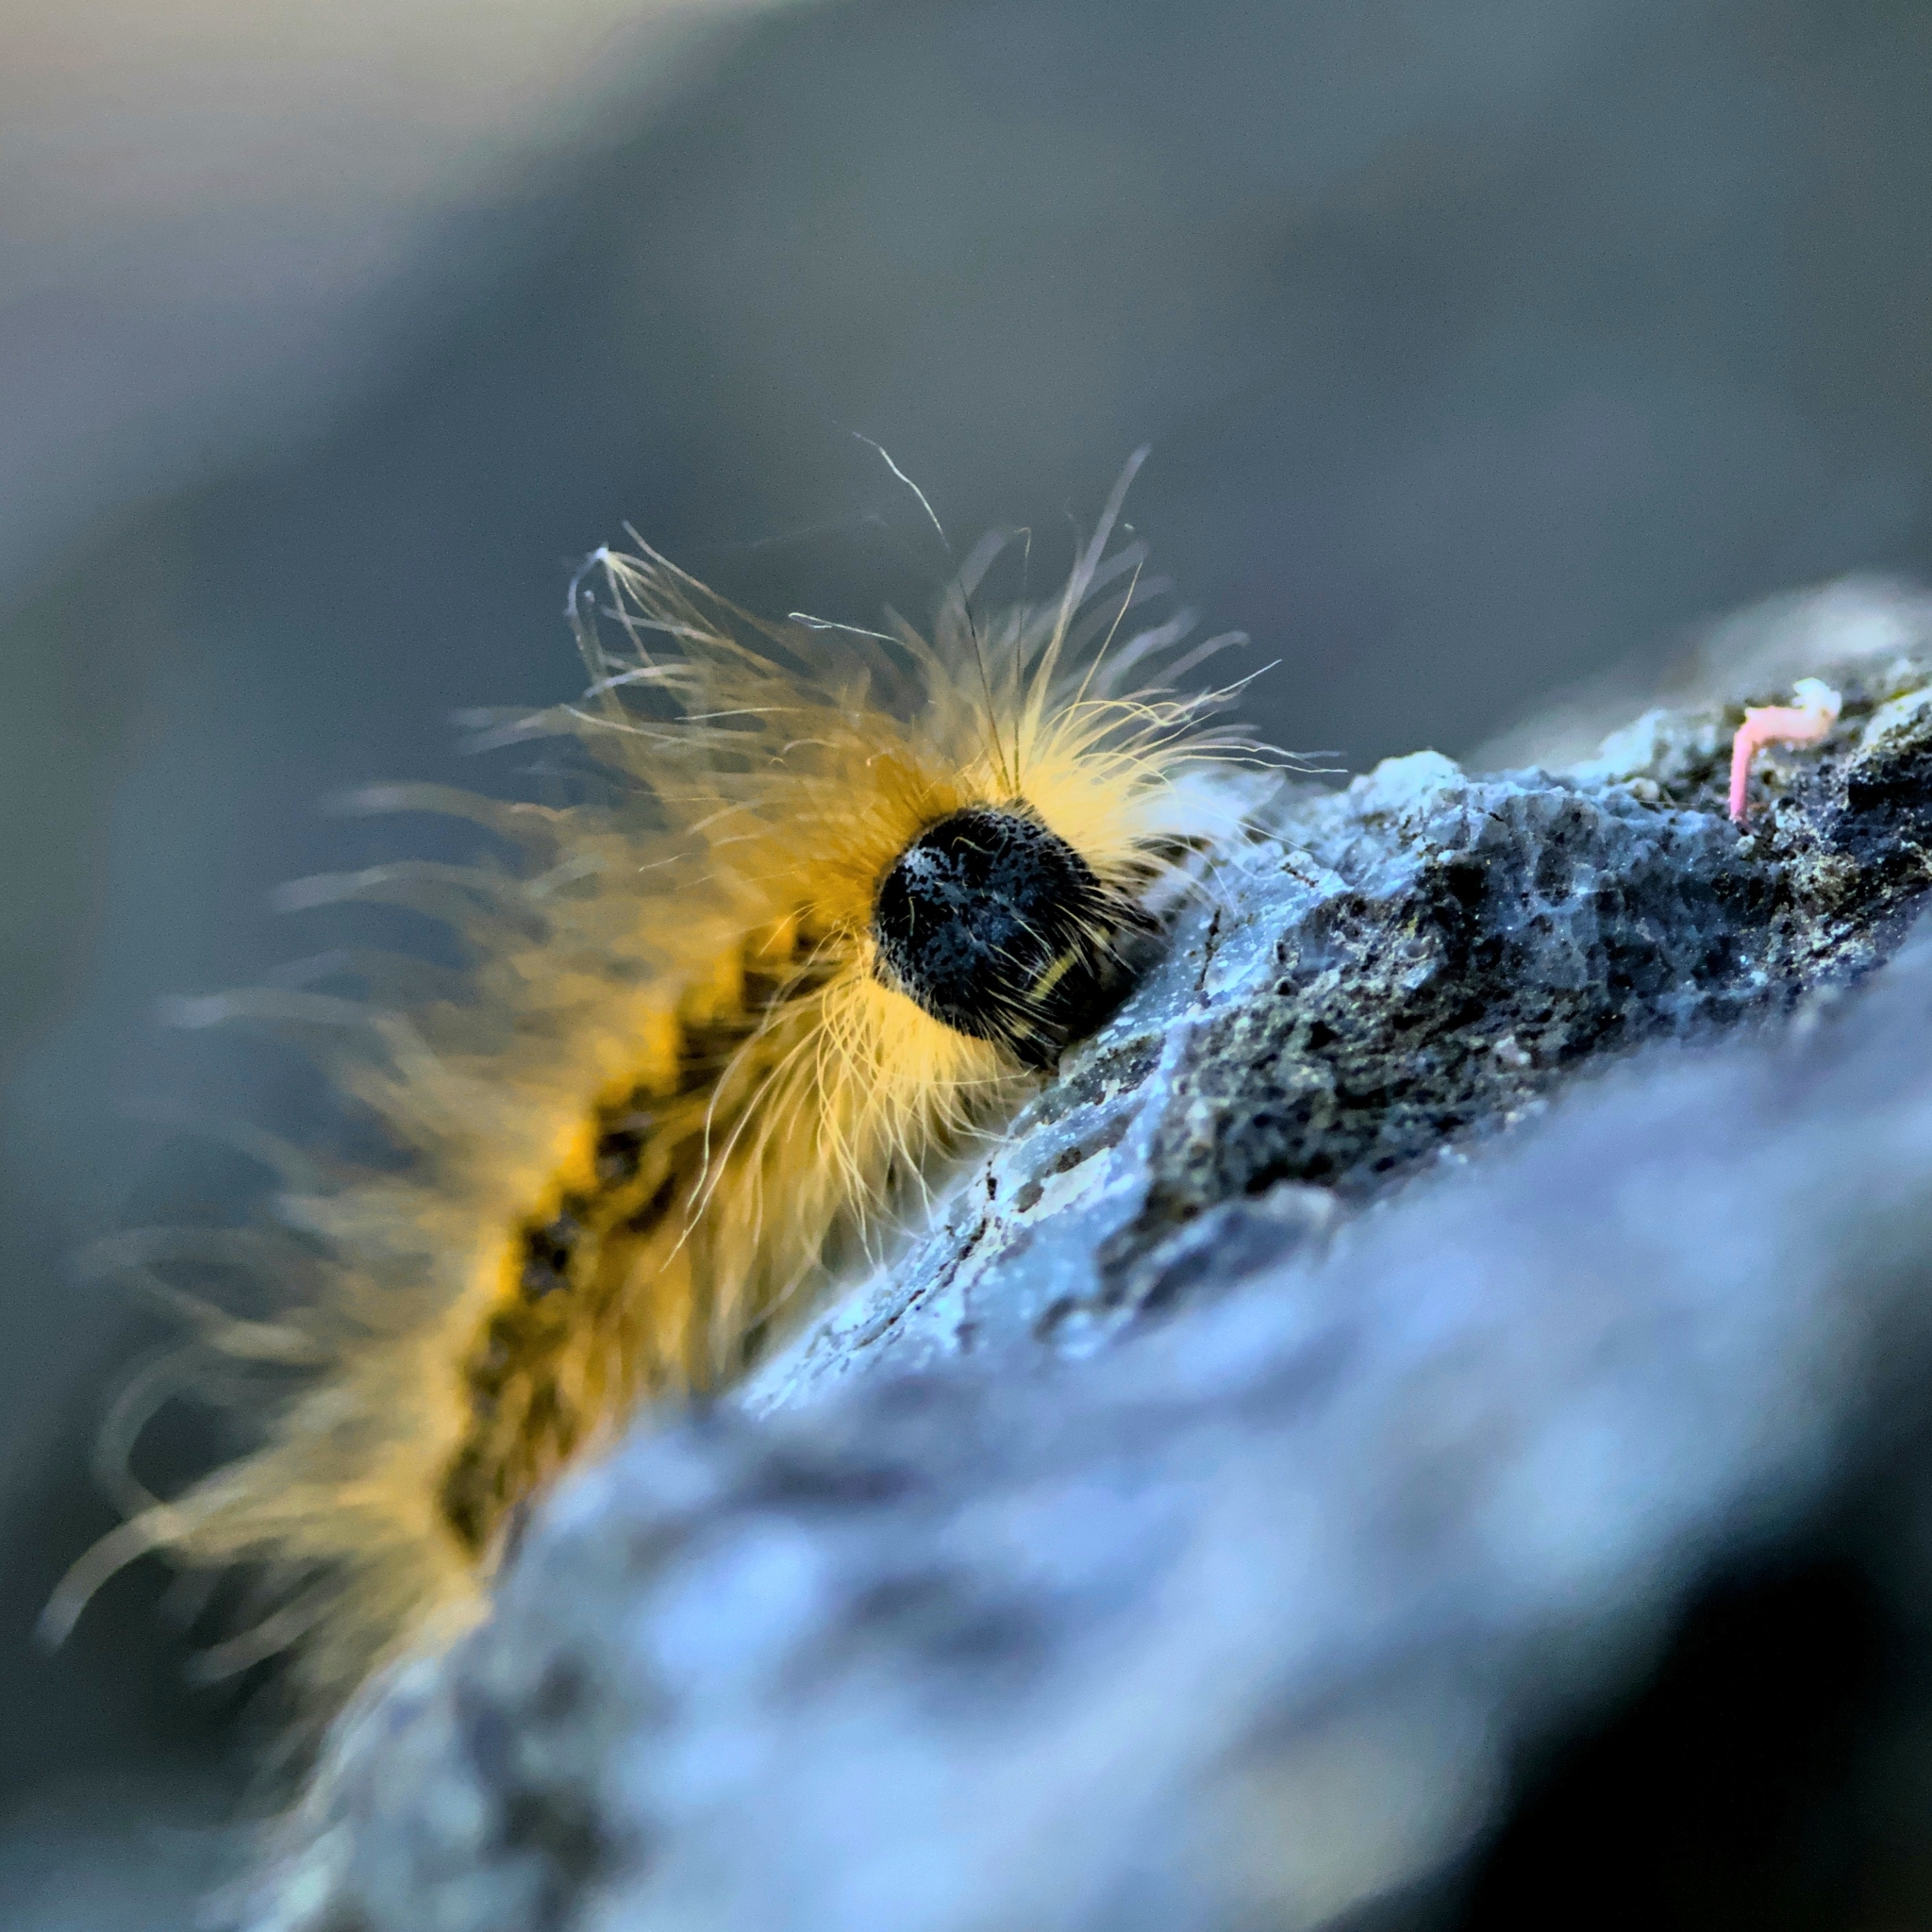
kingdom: Animalia
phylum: Arthropoda
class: Insecta
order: Lepidoptera
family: Lasiocampidae
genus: Malacosoma
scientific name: Malacosoma californica
